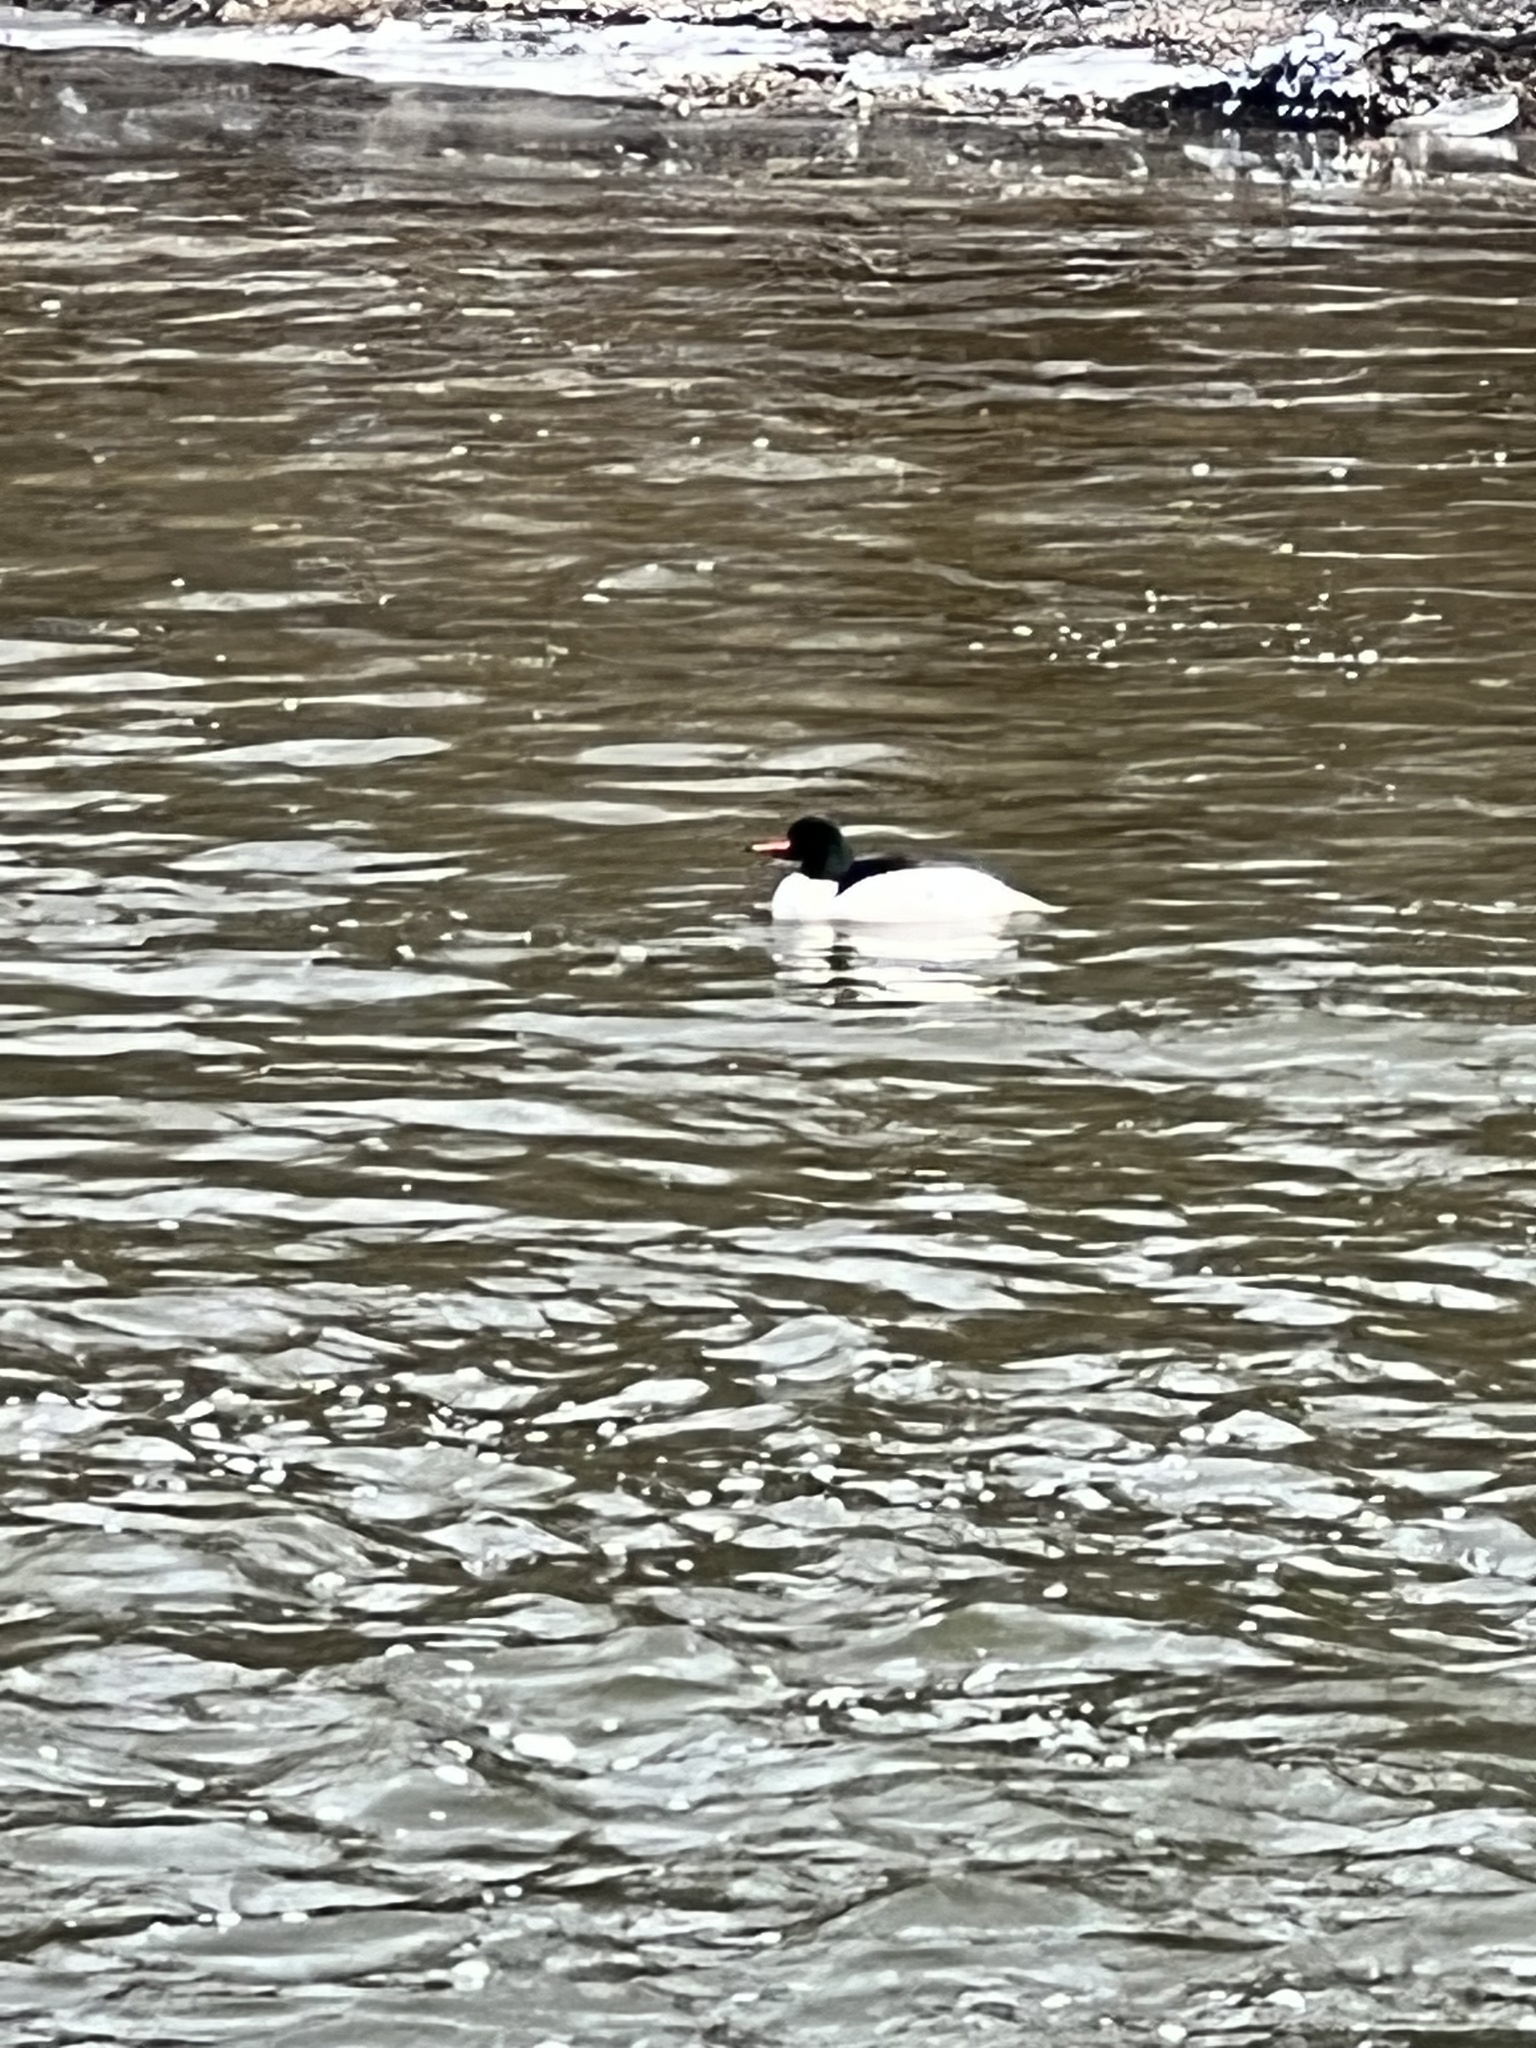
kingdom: Animalia
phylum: Chordata
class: Aves
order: Anseriformes
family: Anatidae
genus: Mergus
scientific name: Mergus merganser
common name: Common merganser
